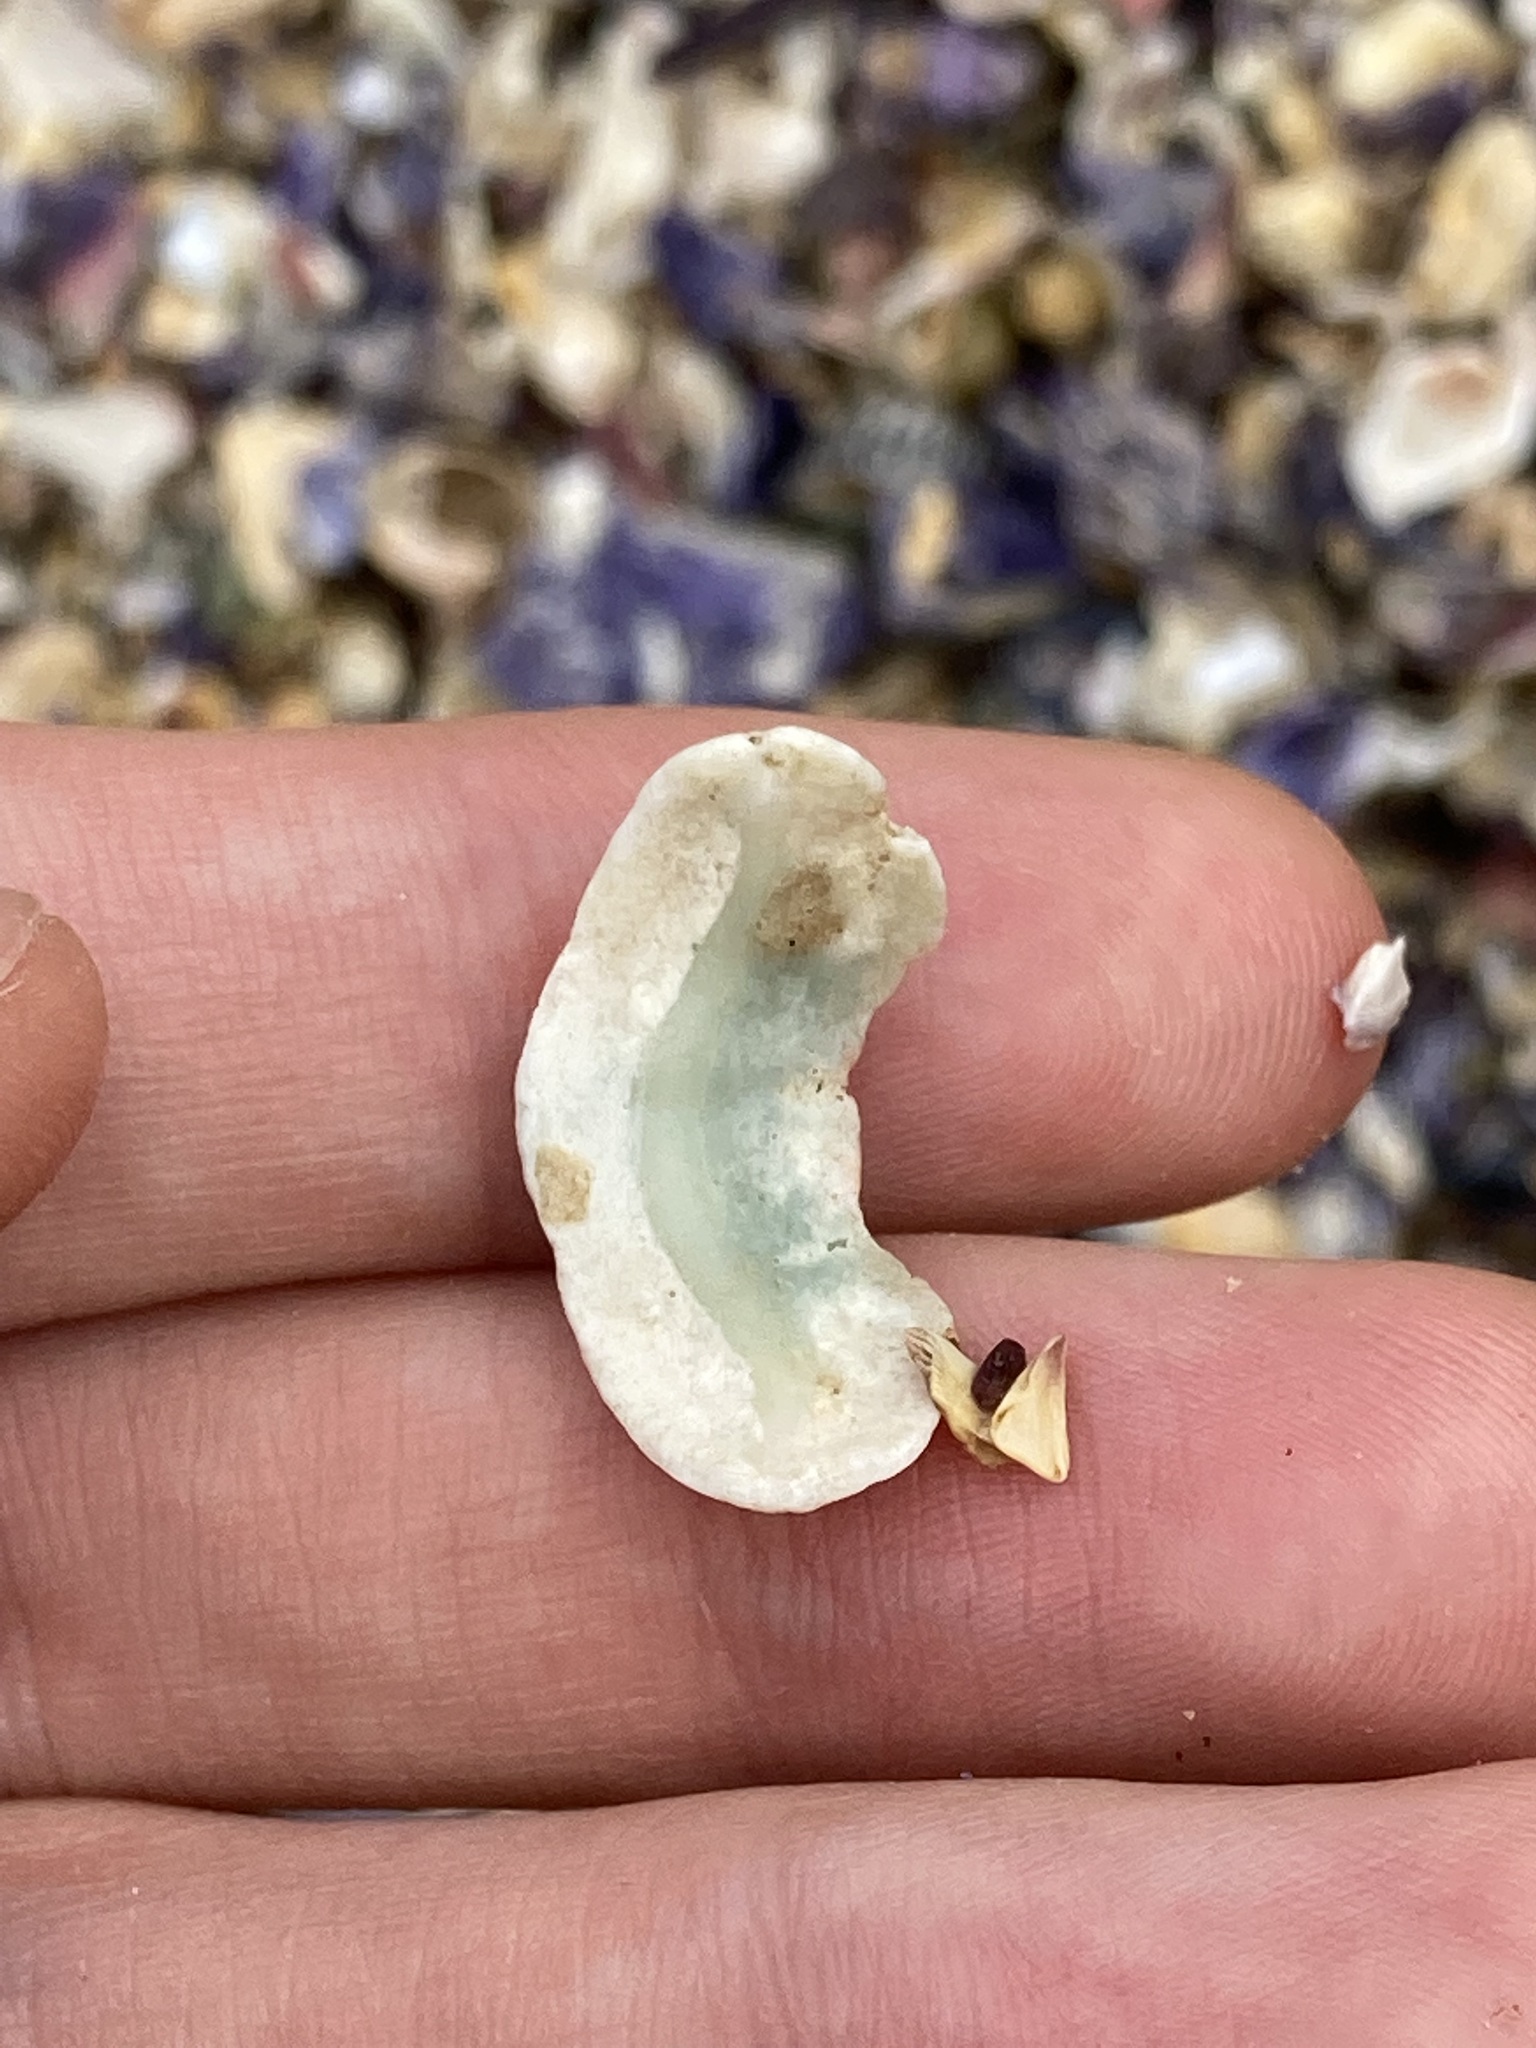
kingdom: Animalia
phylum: Mollusca
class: Polyplacophora
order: Chitonida
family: Mopaliidae
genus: Plaxiphora
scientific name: Plaxiphora albida
